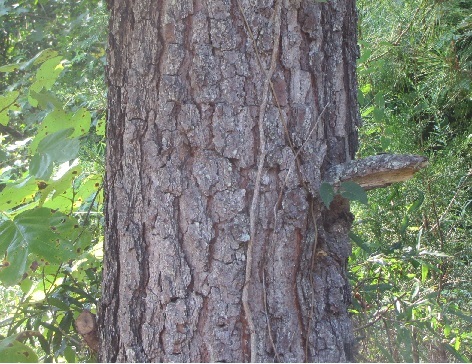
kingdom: Plantae
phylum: Tracheophyta
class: Pinopsida
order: Pinales
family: Pinaceae
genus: Pinus
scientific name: Pinus taeda
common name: Loblolly pine
